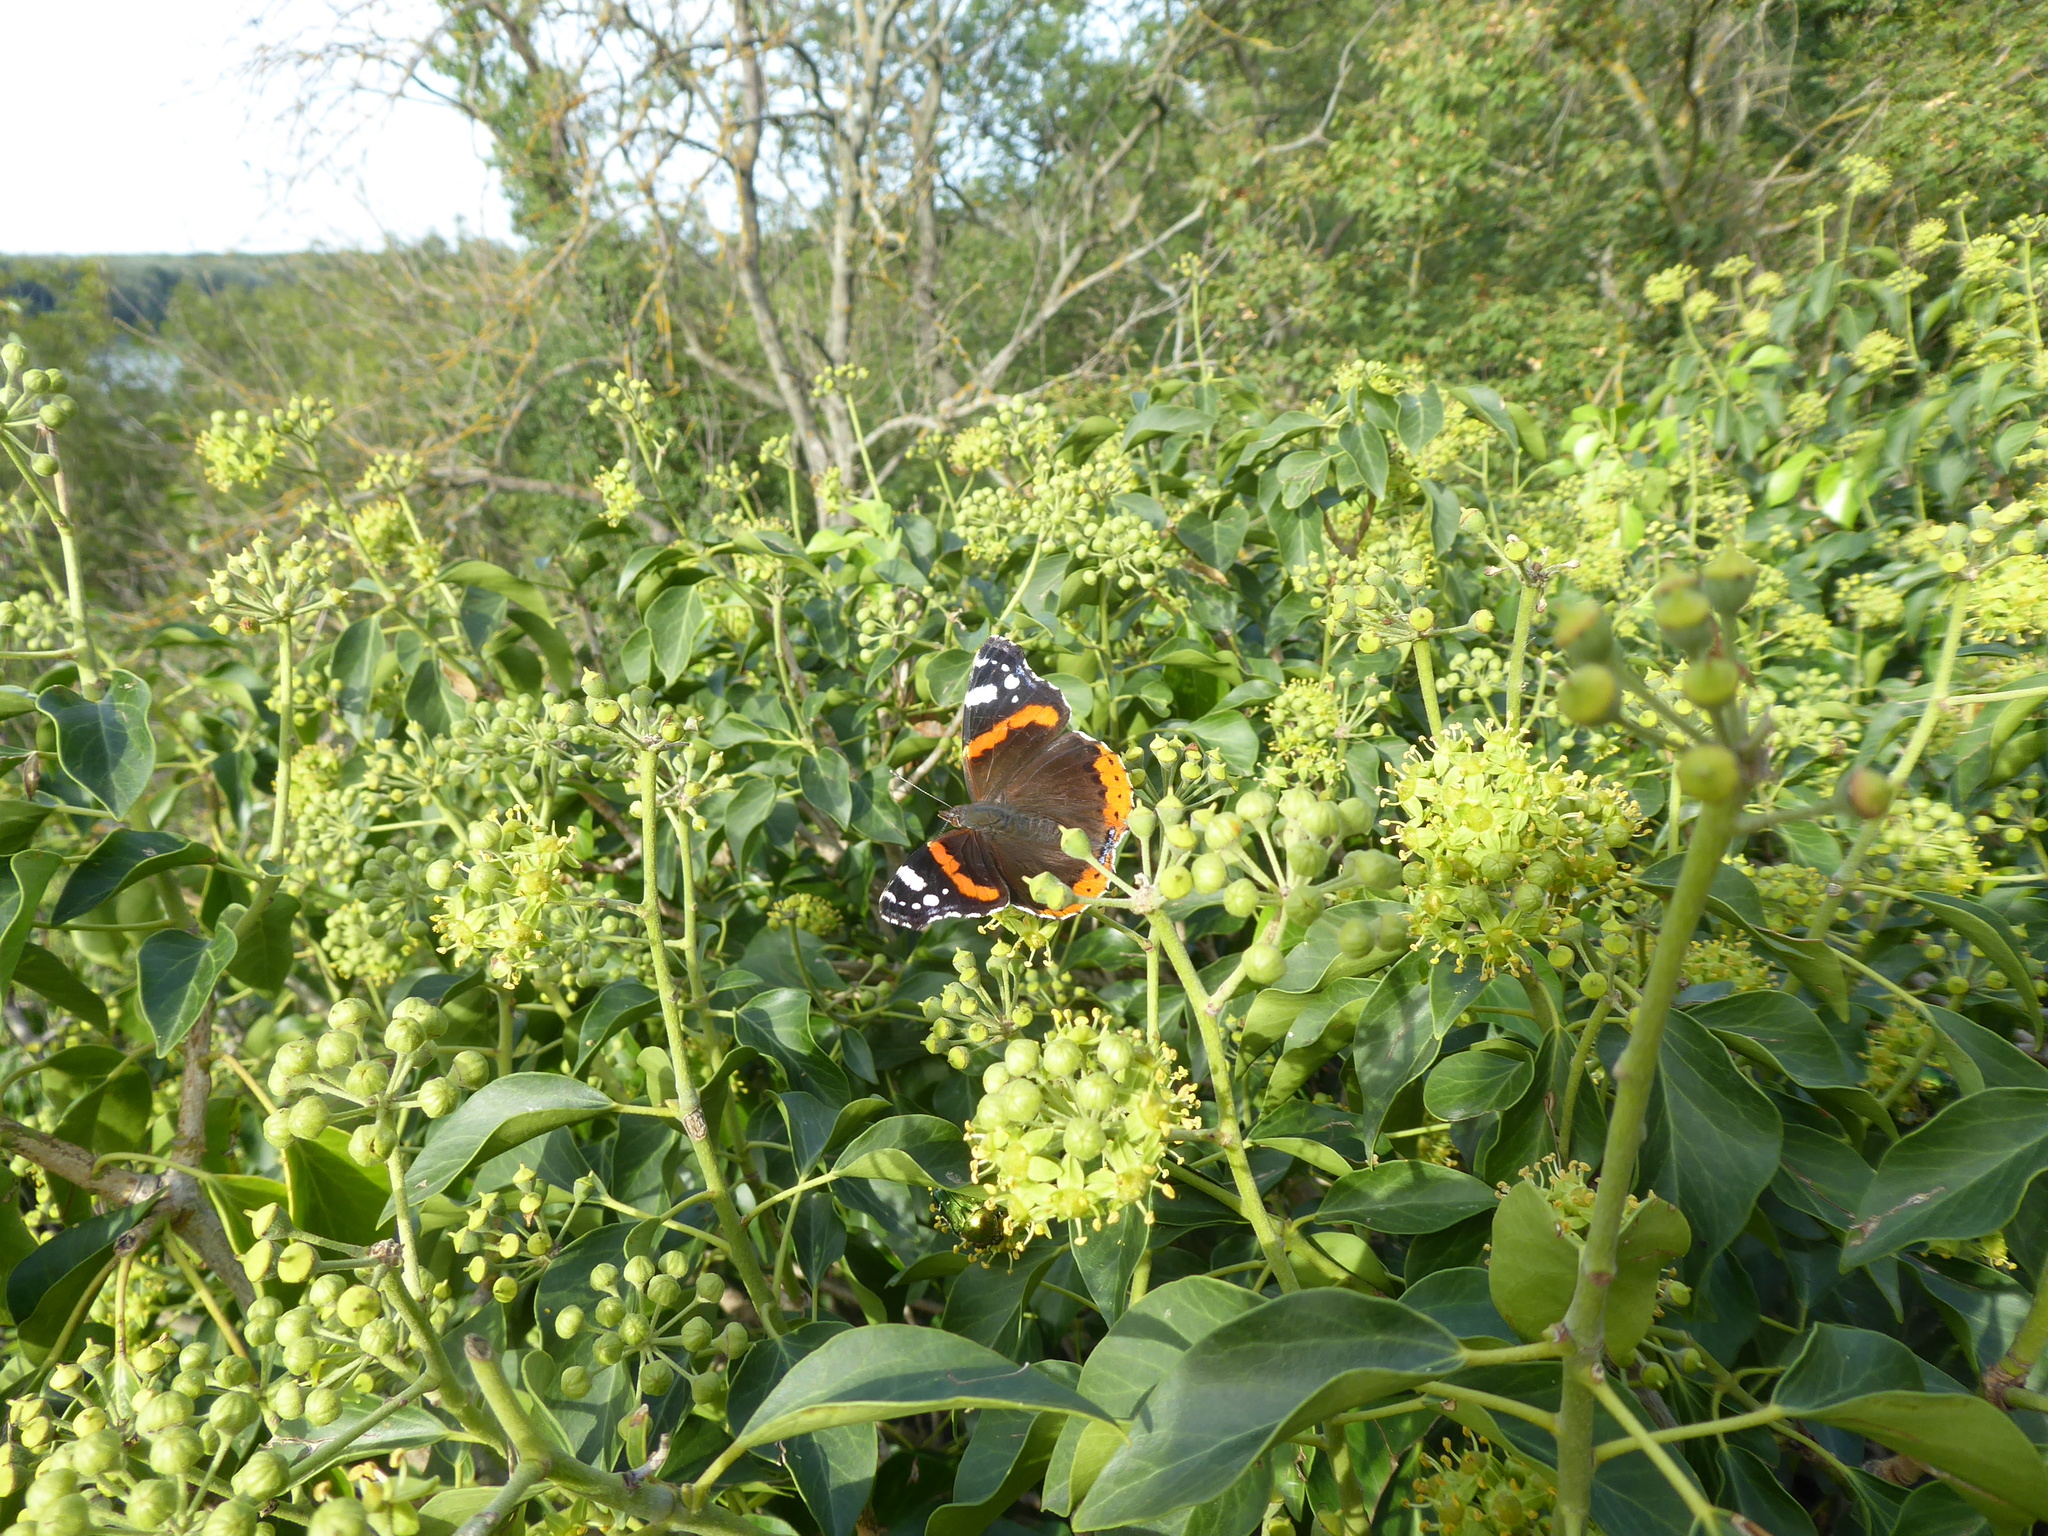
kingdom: Animalia
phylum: Arthropoda
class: Insecta
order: Lepidoptera
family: Nymphalidae
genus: Vanessa
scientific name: Vanessa atalanta
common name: Red admiral
